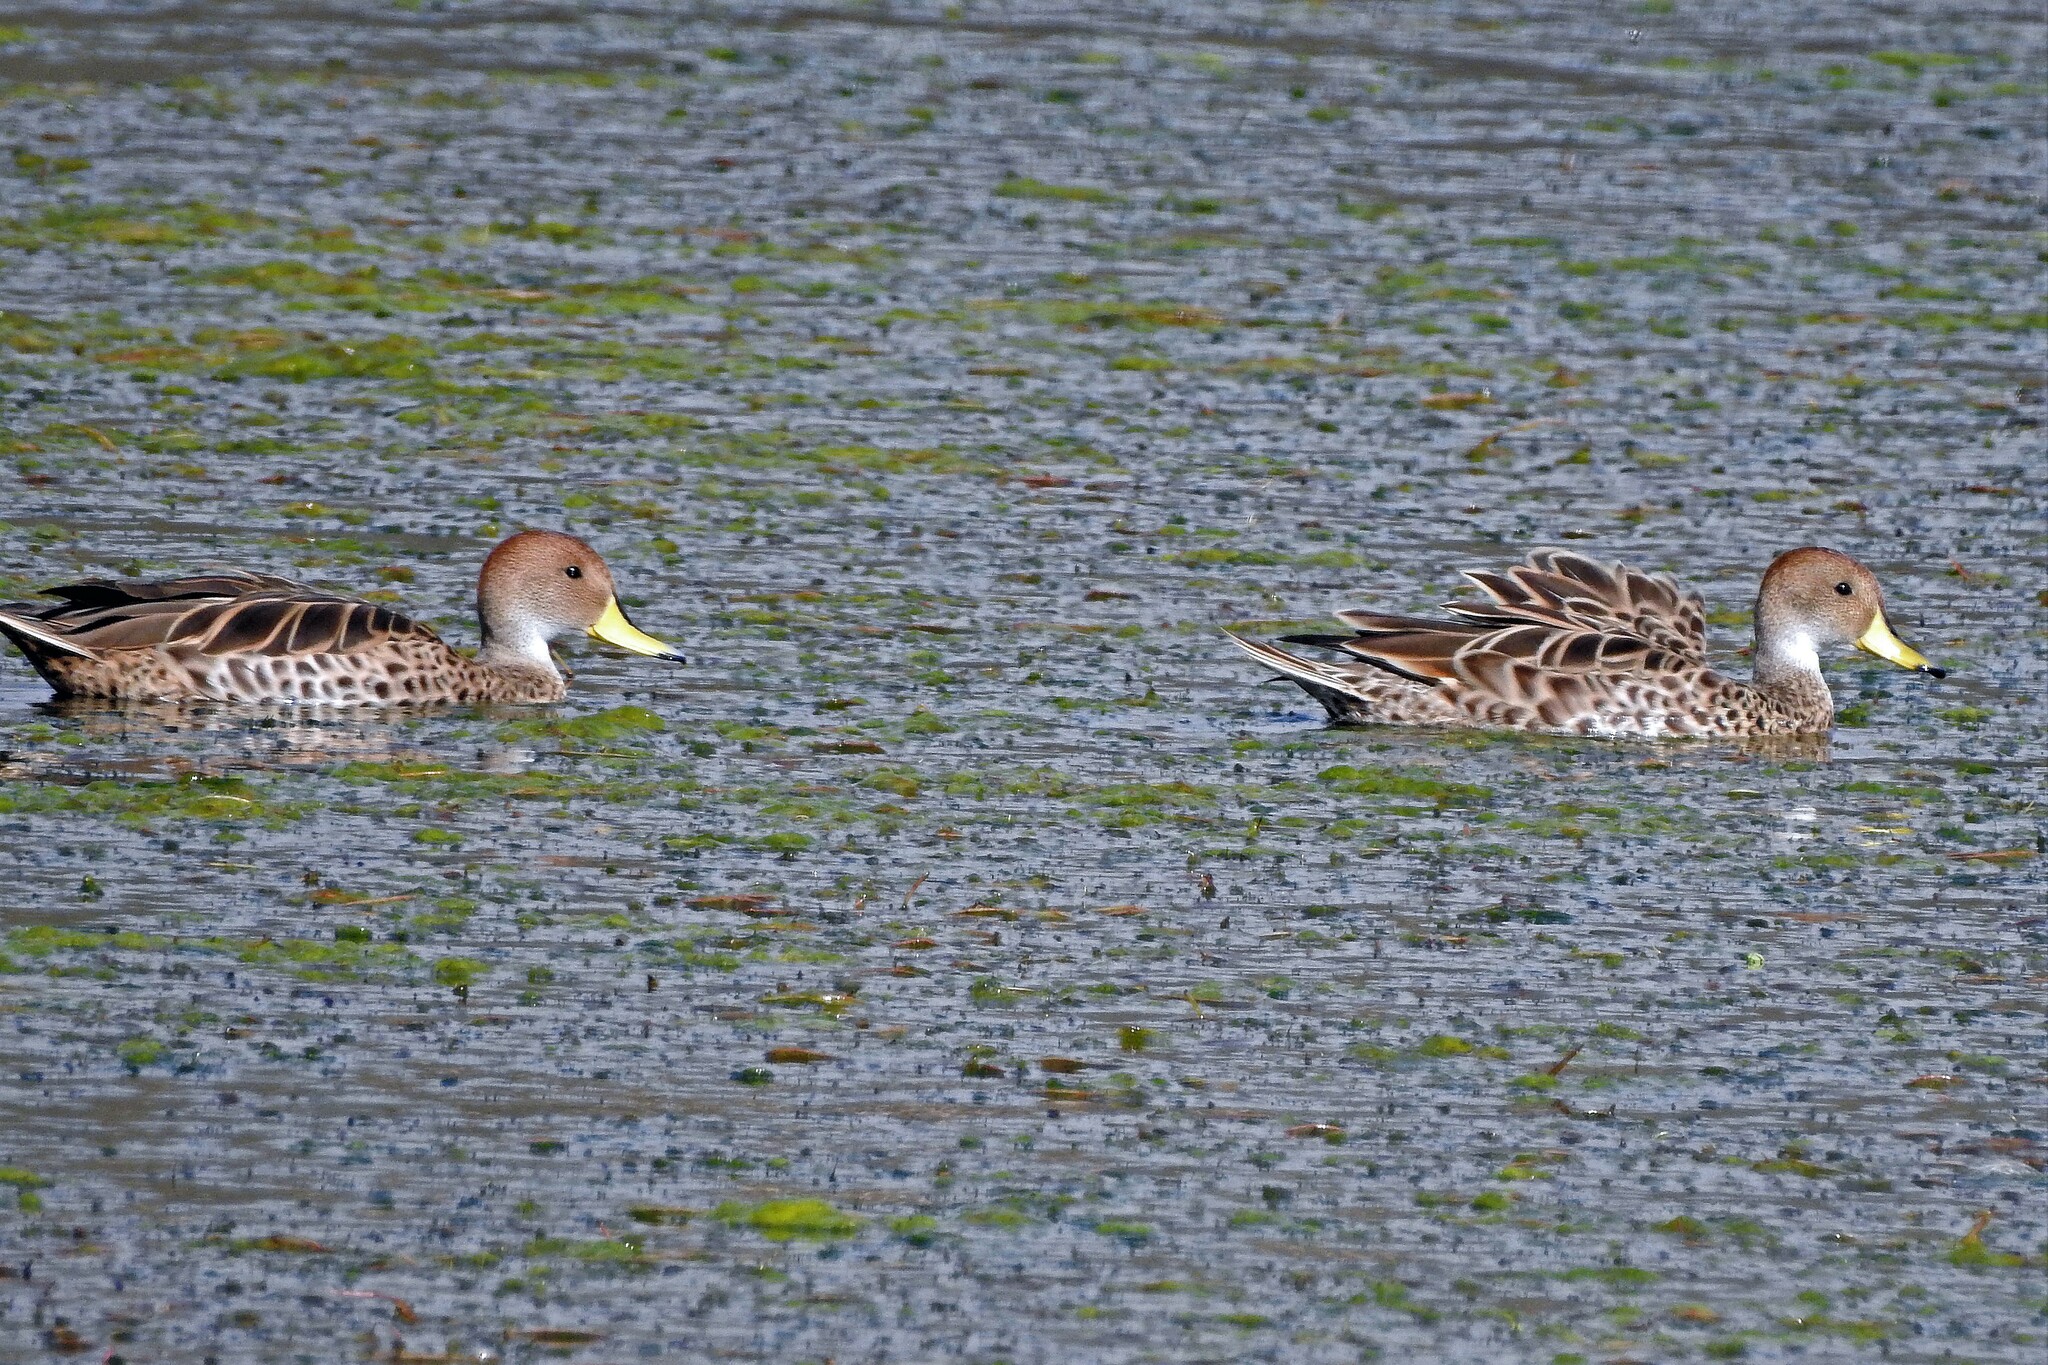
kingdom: Animalia
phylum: Chordata
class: Aves
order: Anseriformes
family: Anatidae
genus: Anas
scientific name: Anas georgica
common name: Yellow-billed pintail
